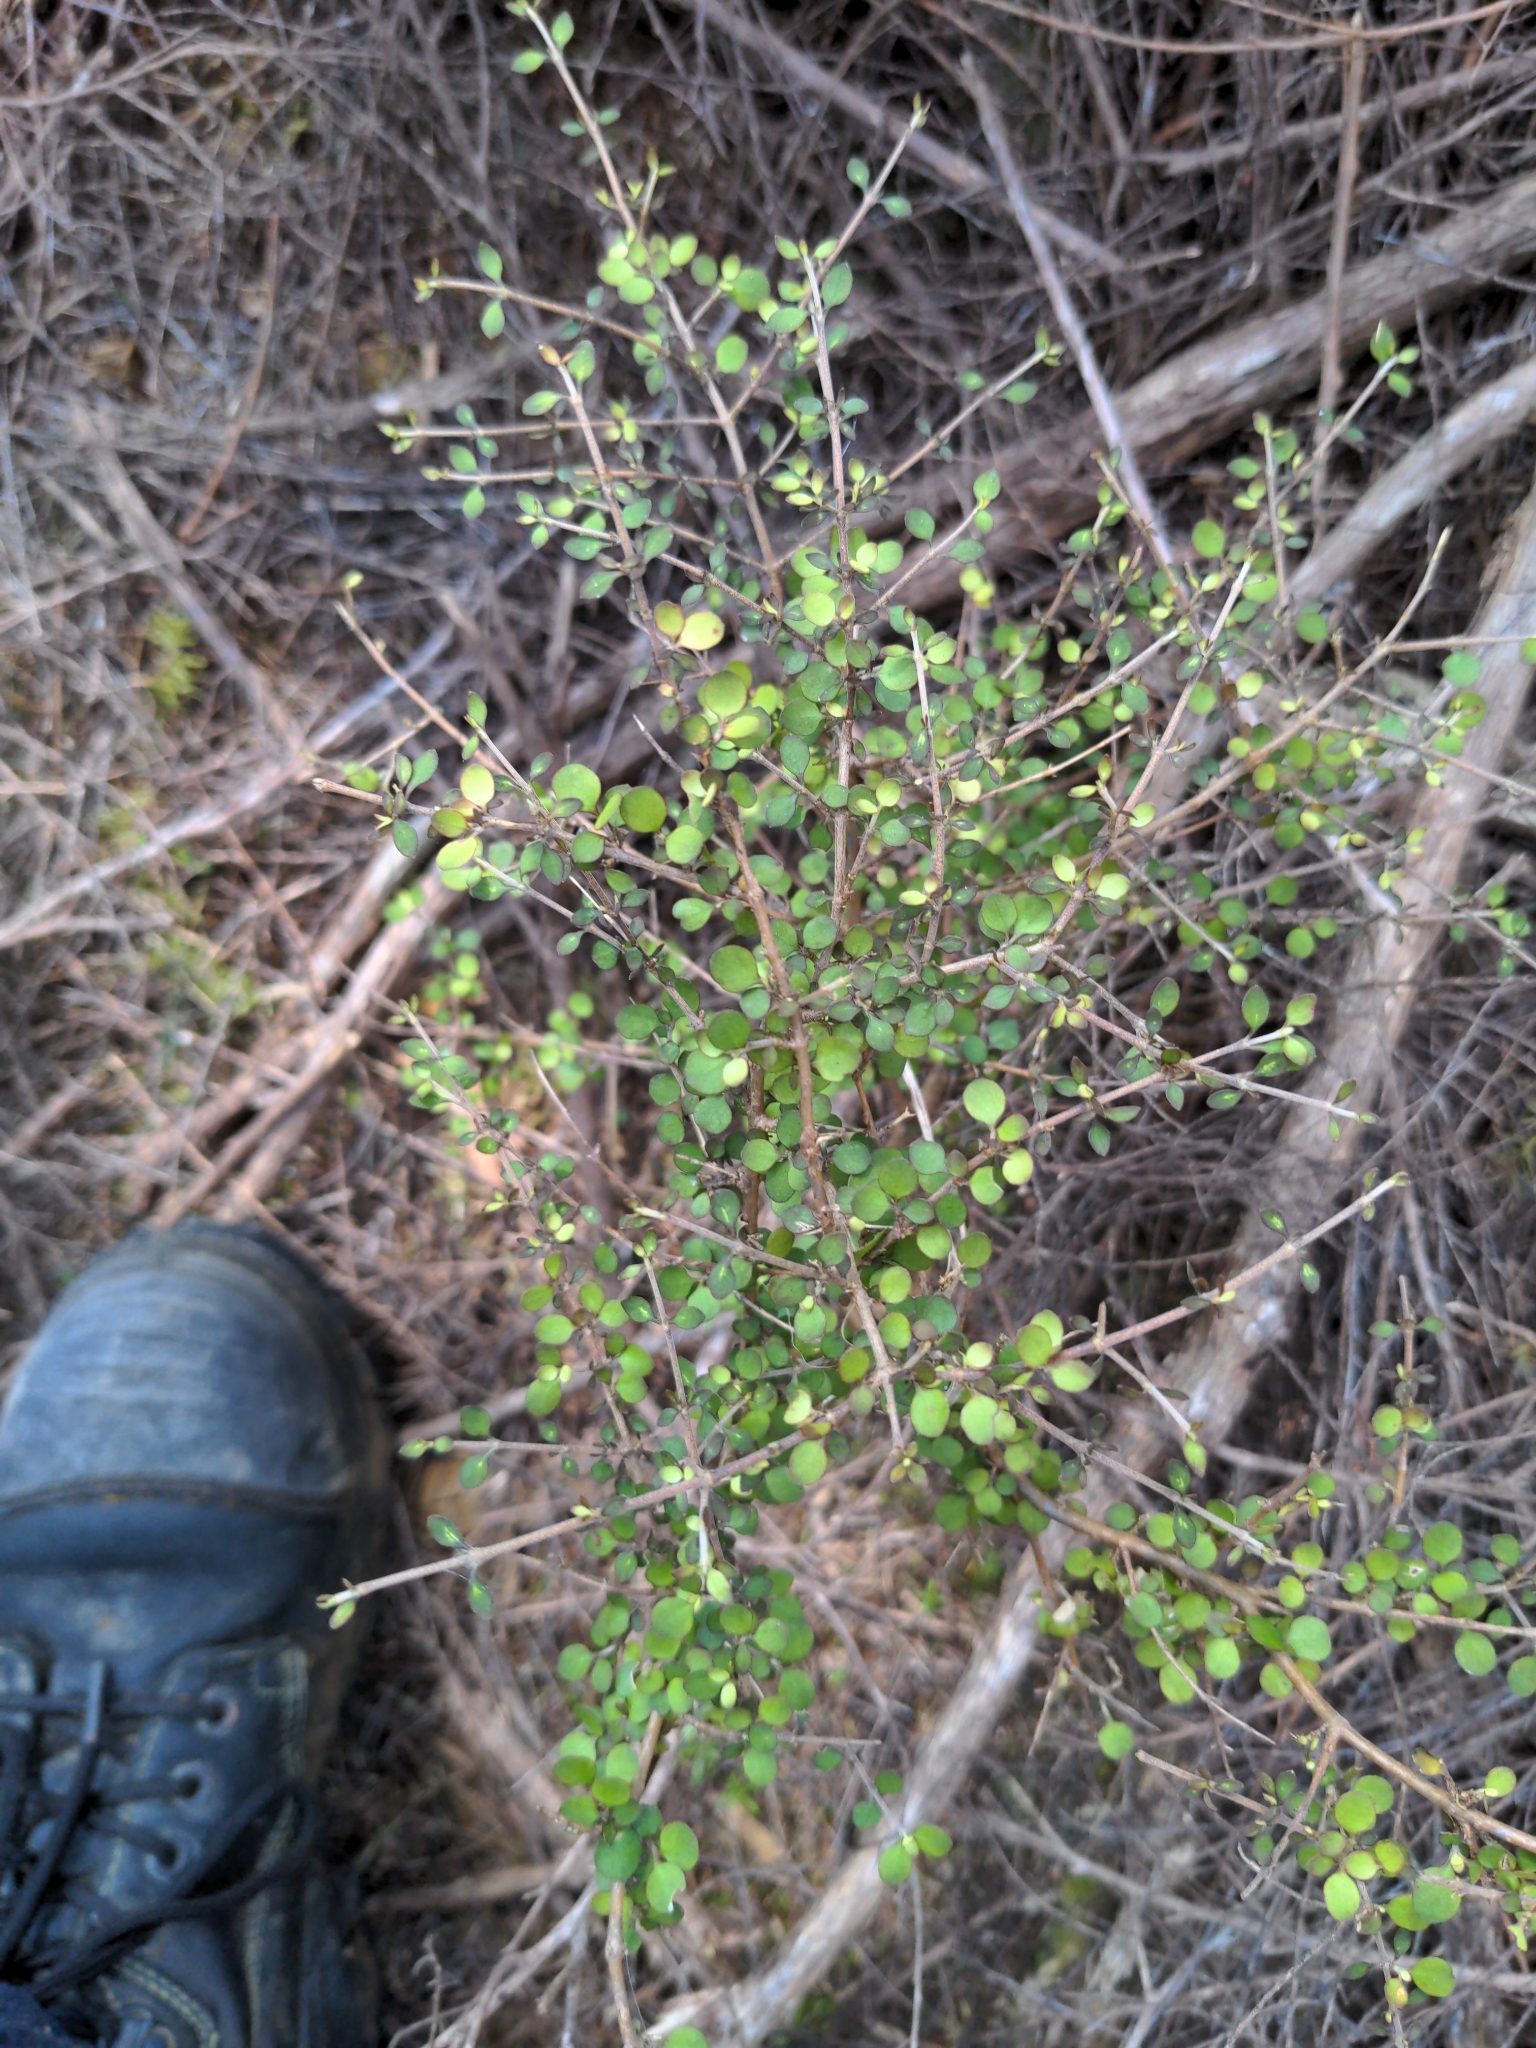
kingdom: Plantae
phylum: Tracheophyta
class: Magnoliopsida
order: Gentianales
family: Rubiaceae
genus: Coprosma
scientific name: Coprosma rhamnoides
